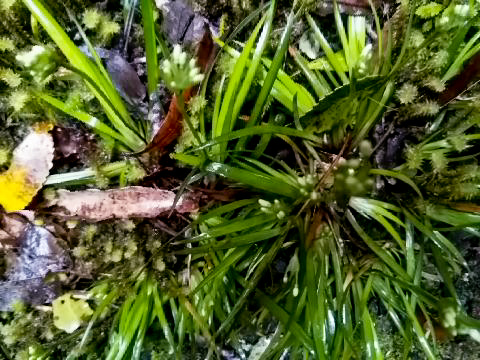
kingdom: Plantae
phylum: Tracheophyta
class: Liliopsida
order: Asparagales
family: Iridaceae
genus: Libertia
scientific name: Libertia micrantha
